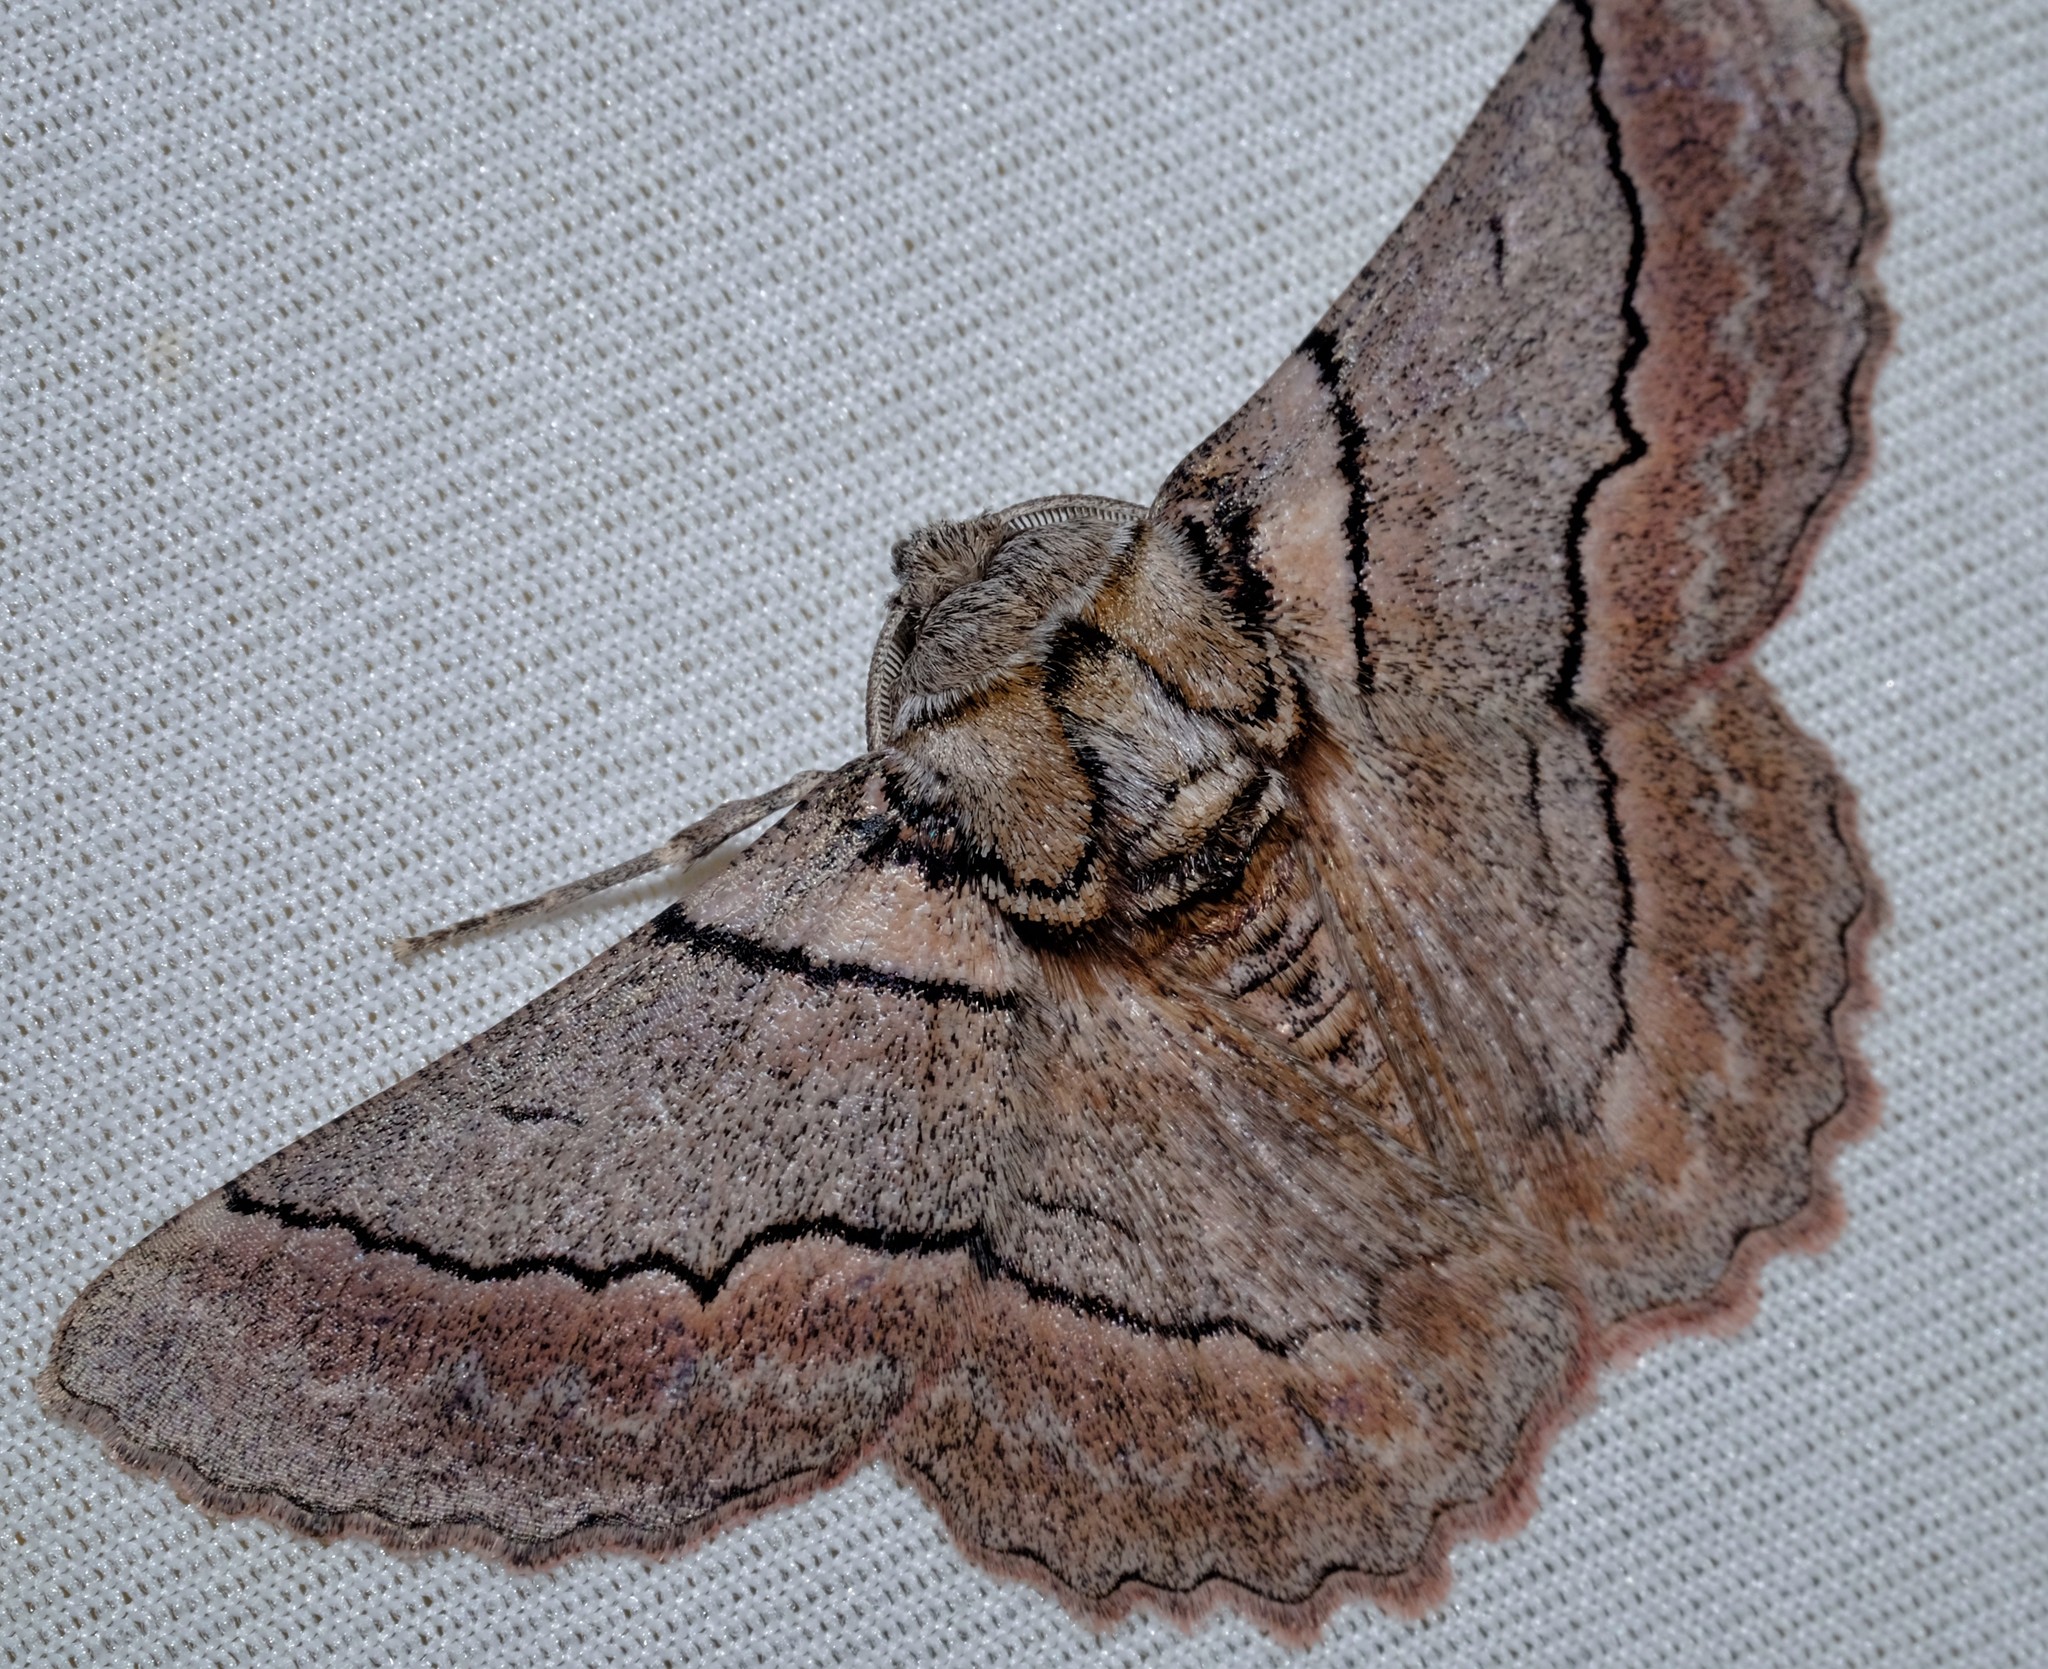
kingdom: Animalia
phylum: Arthropoda
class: Insecta
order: Lepidoptera
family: Geometridae
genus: Hypobapta
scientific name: Hypobapta tachyhalotaria
